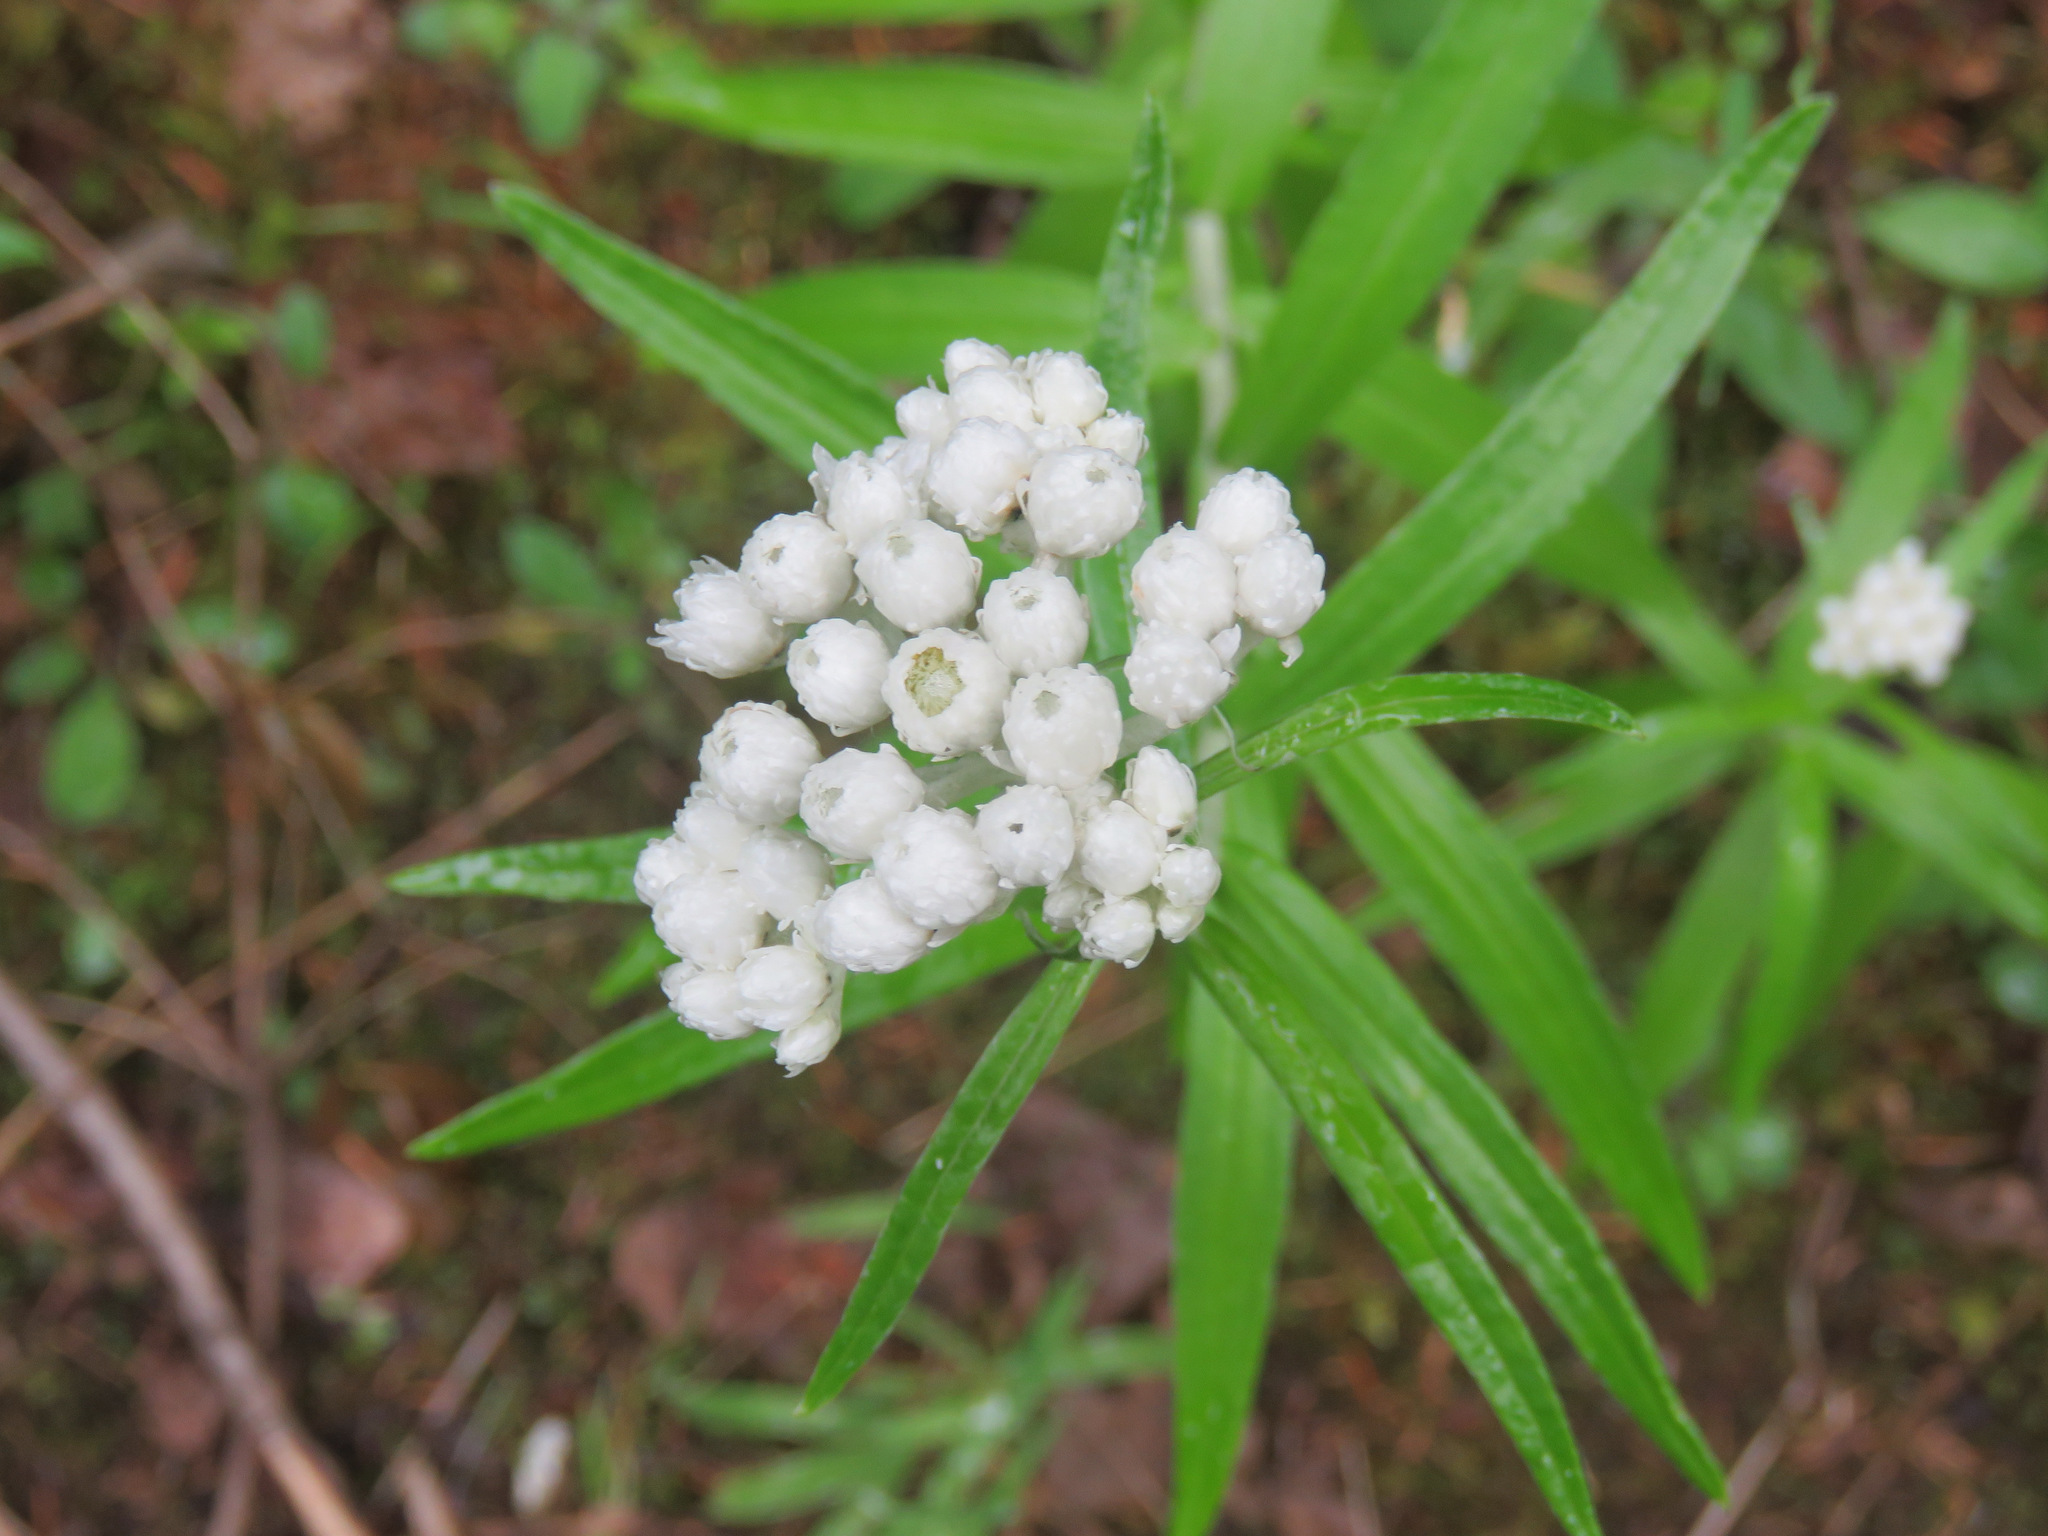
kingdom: Plantae
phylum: Tracheophyta
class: Magnoliopsida
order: Asterales
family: Asteraceae
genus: Anaphalis
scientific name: Anaphalis margaritacea
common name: Pearly everlasting
